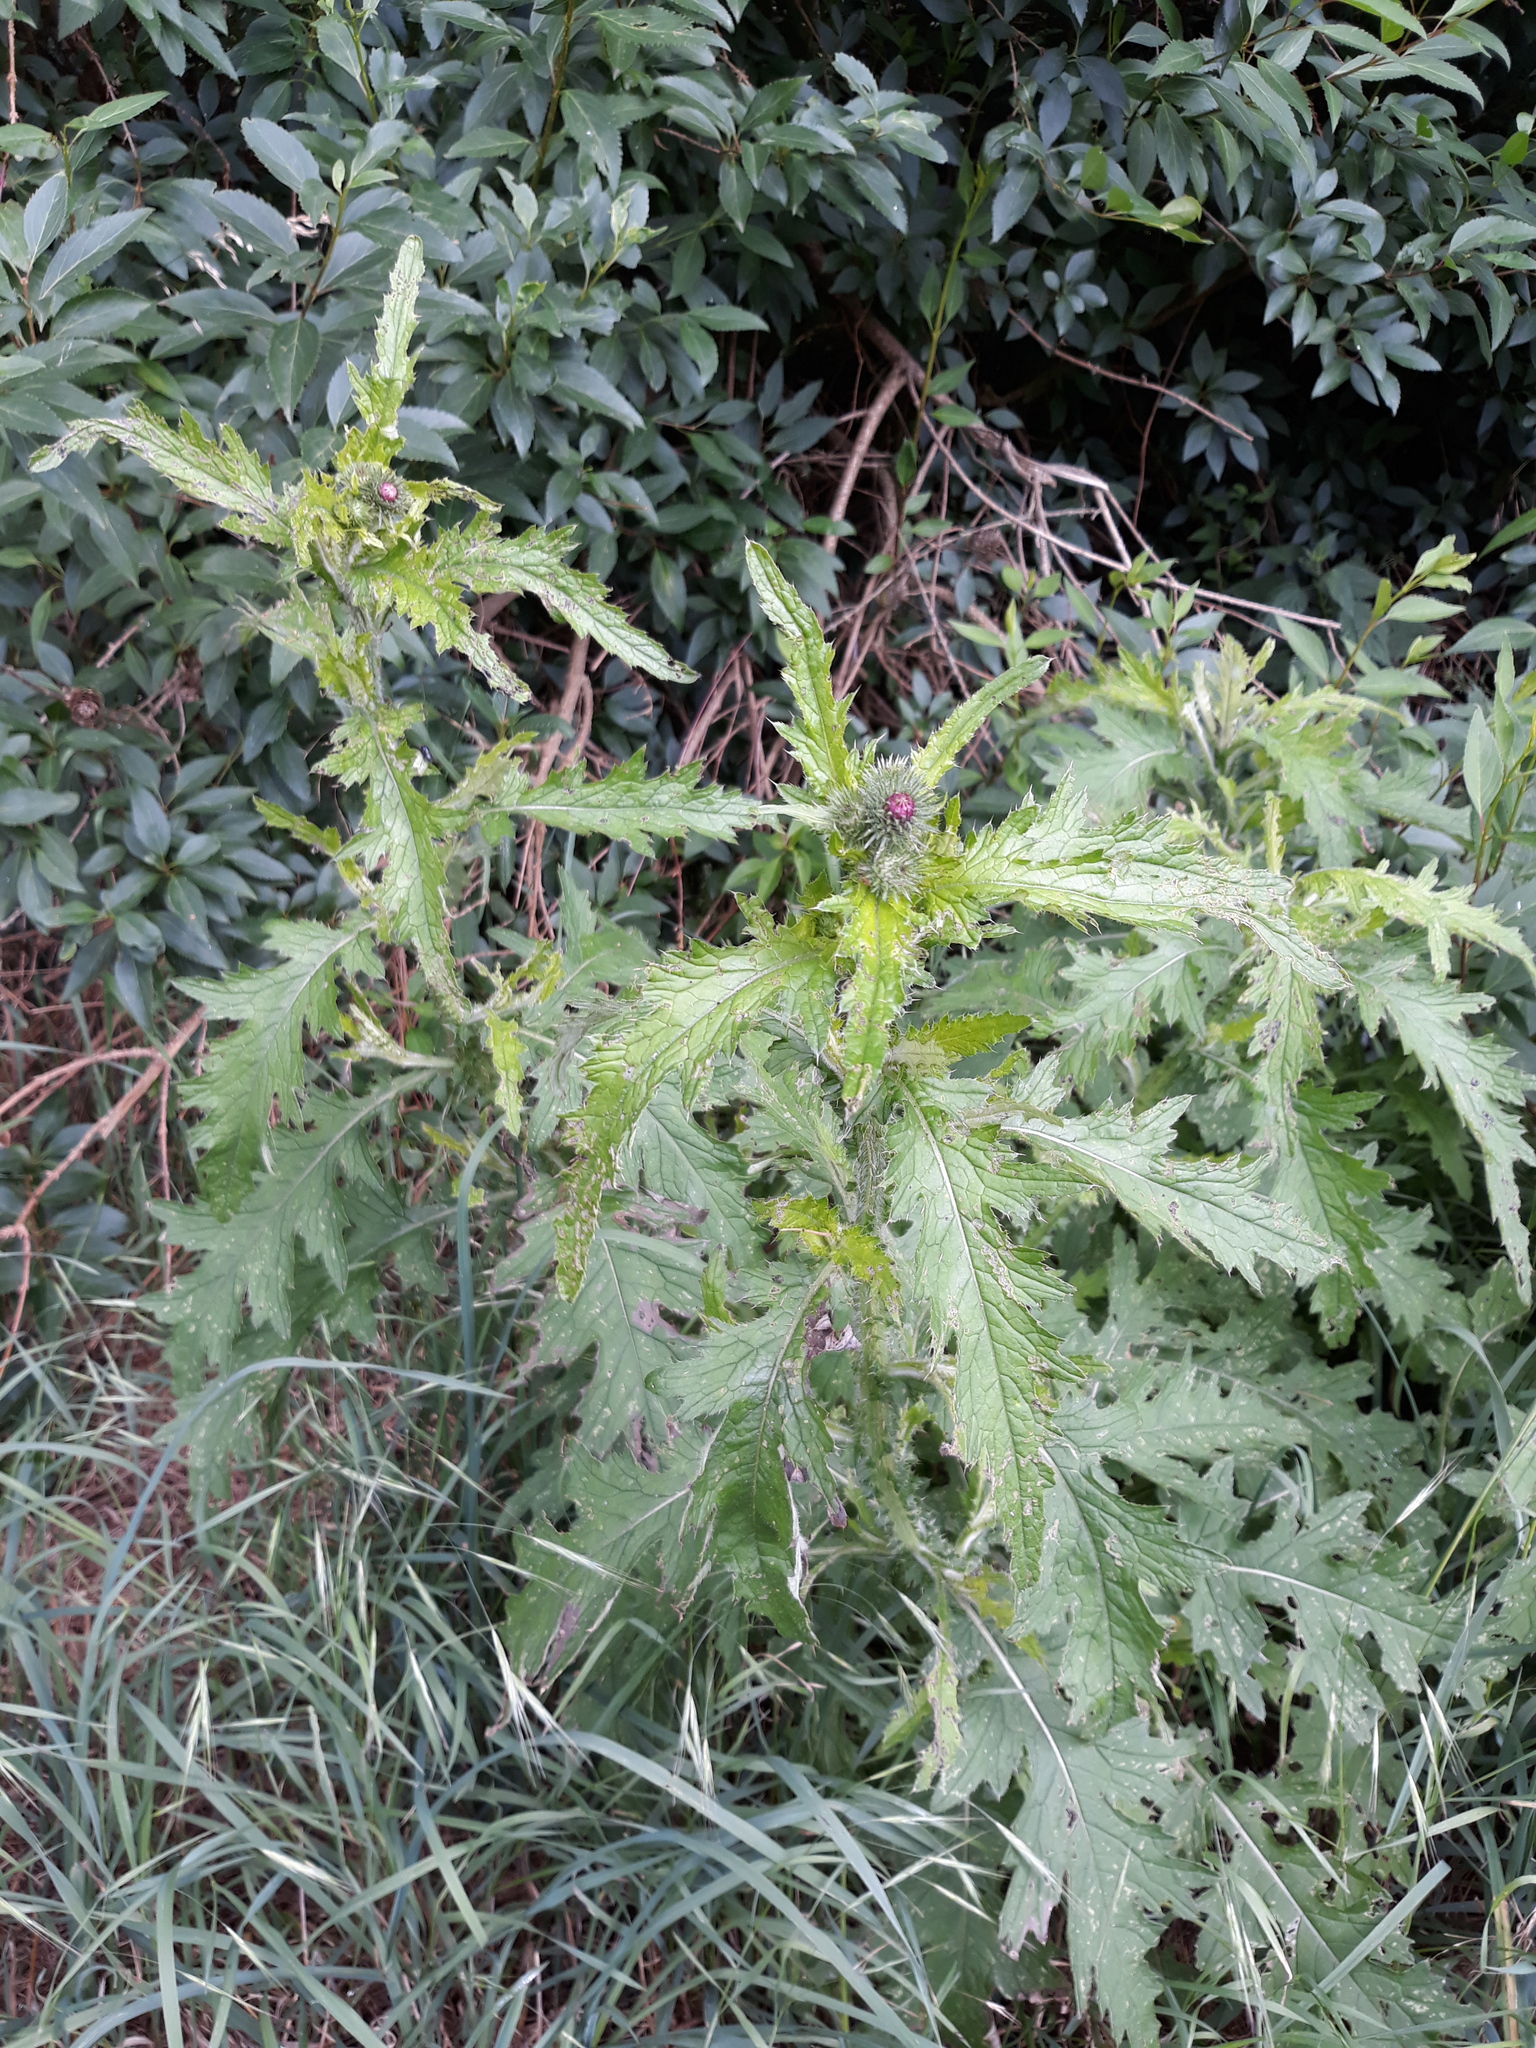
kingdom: Plantae
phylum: Tracheophyta
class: Magnoliopsida
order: Asterales
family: Asteraceae
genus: Carduus
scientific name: Carduus crispus
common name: Welted thistle
